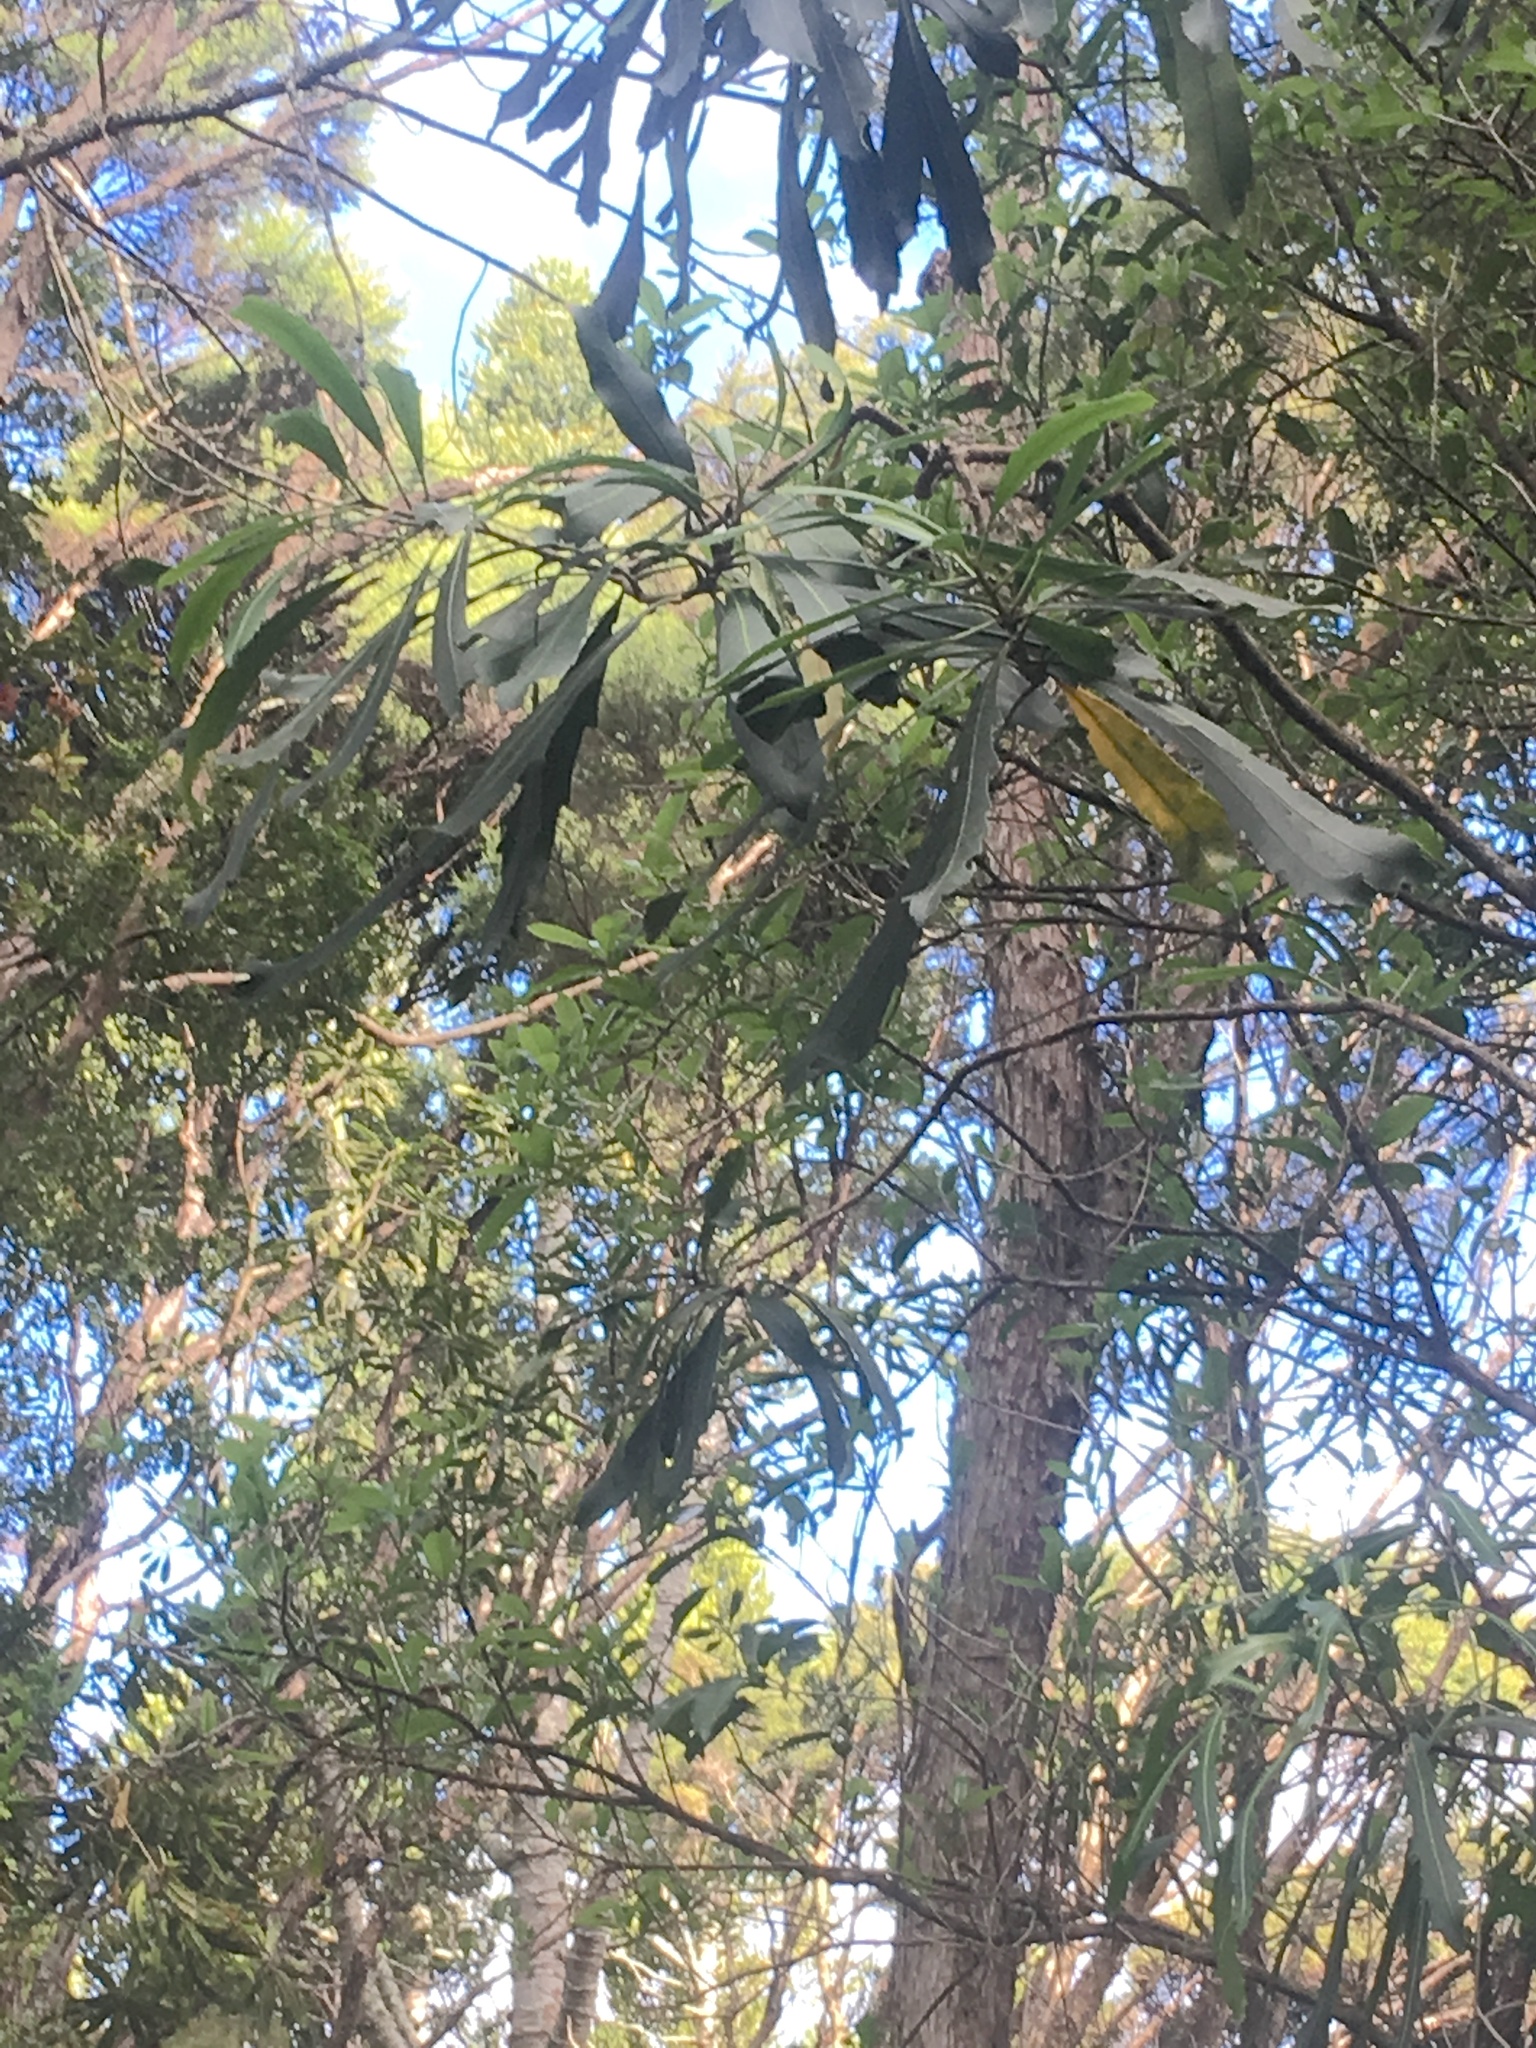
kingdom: Plantae
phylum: Tracheophyta
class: Magnoliopsida
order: Apiales
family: Araliaceae
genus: Pseudopanax
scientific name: Pseudopanax crassifolius
